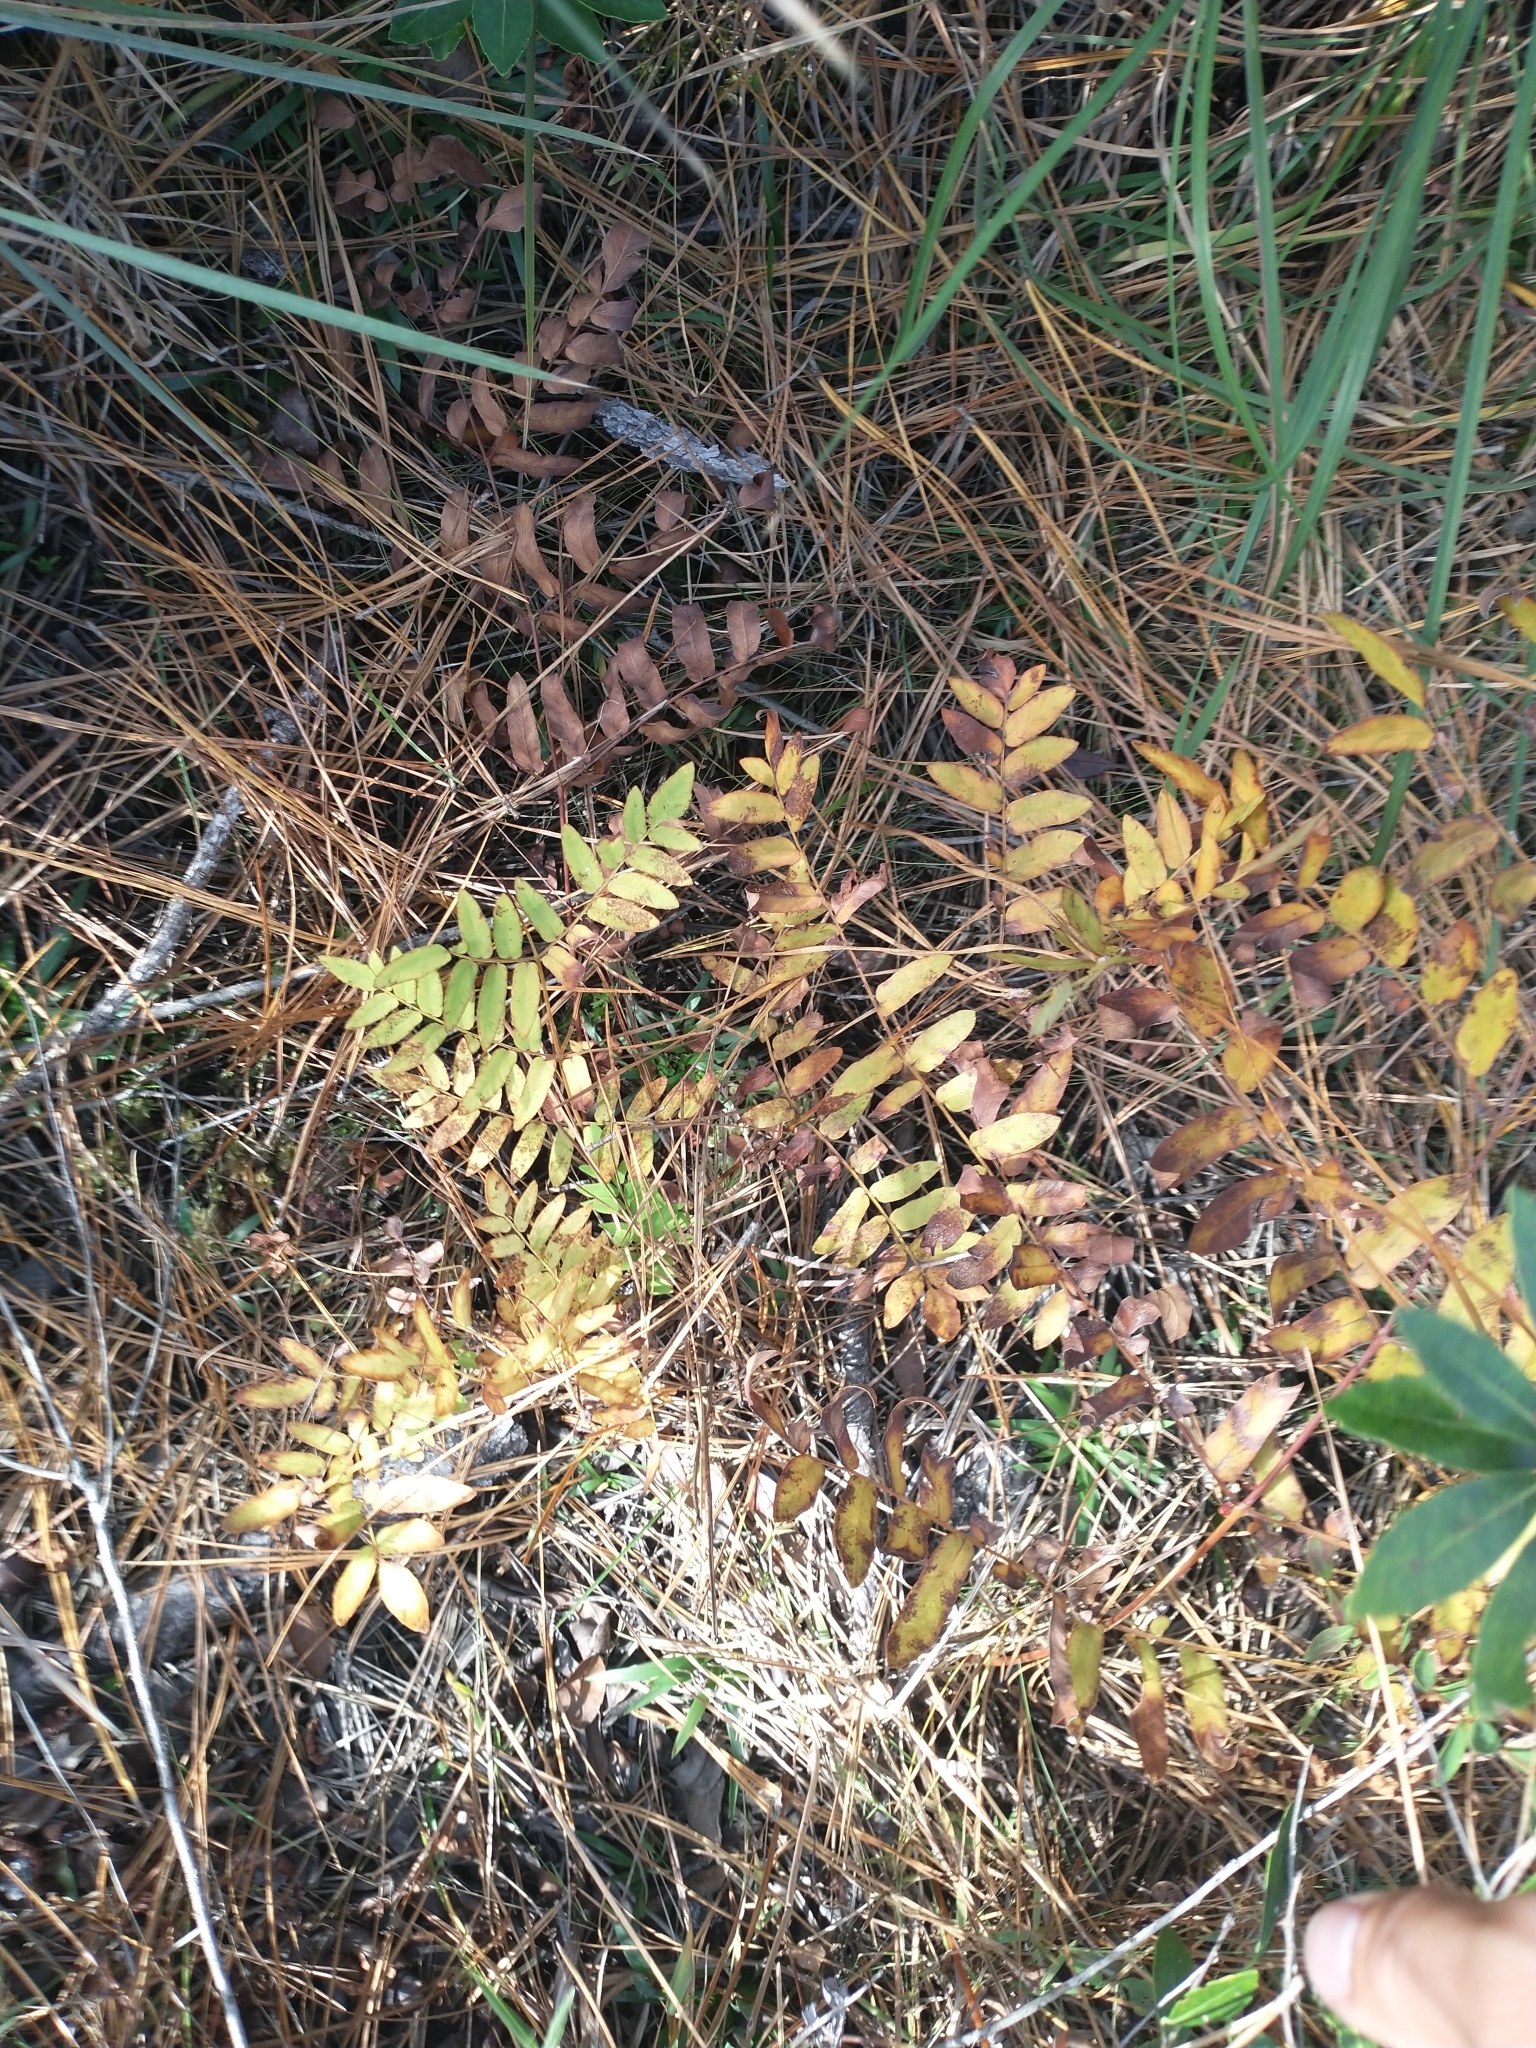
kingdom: Plantae
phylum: Tracheophyta
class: Polypodiopsida
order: Osmundales
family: Osmundaceae
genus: Osmunda
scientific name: Osmunda spectabilis
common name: American royal fern
